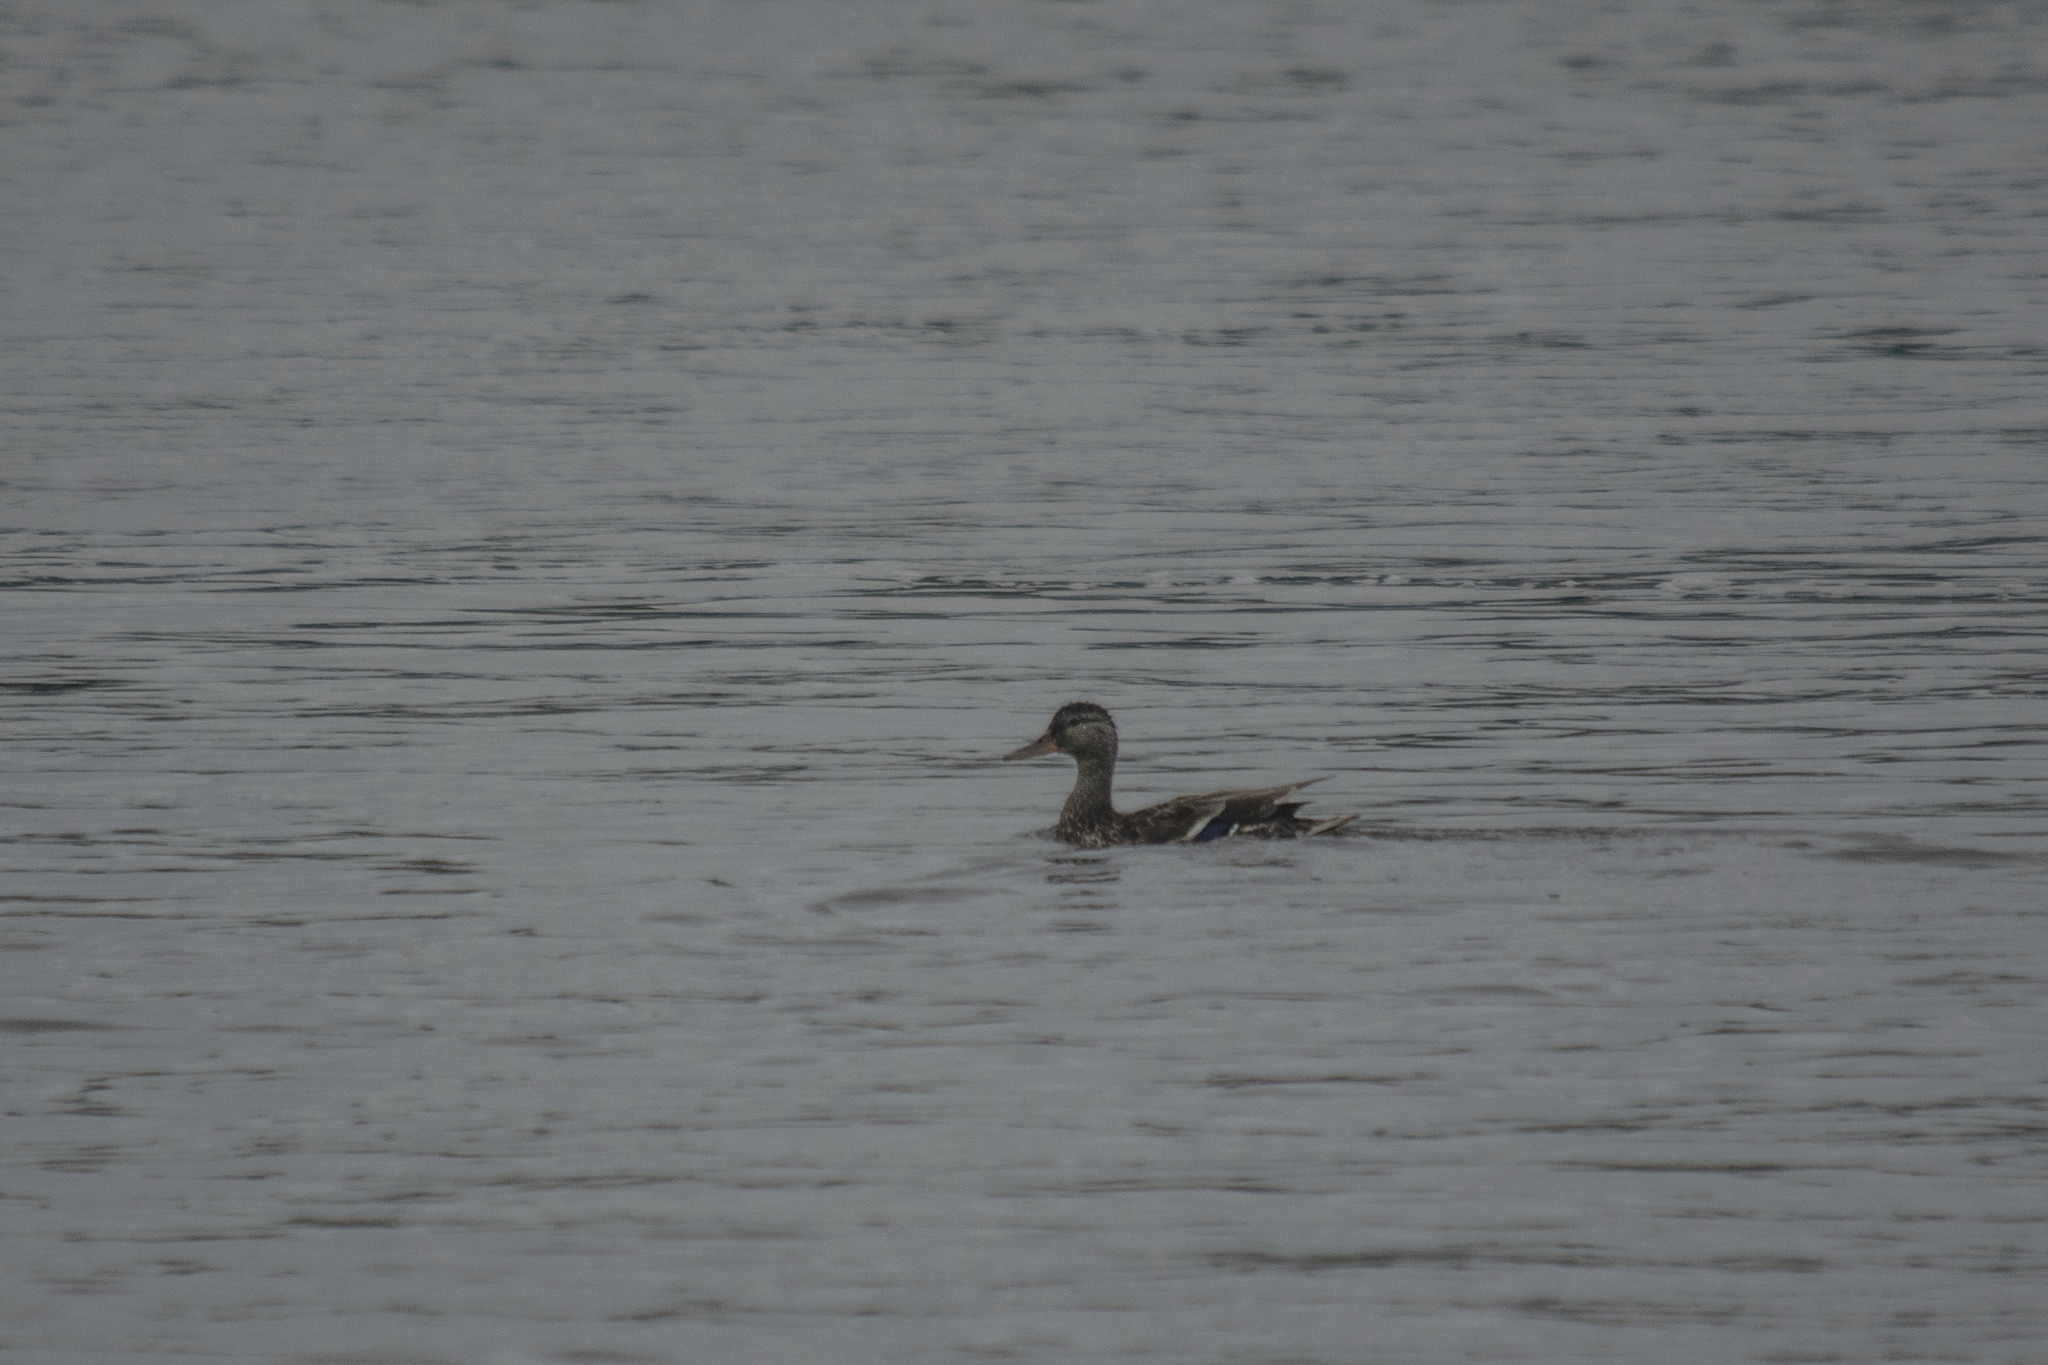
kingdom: Animalia
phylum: Chordata
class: Aves
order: Anseriformes
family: Anatidae
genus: Anas
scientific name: Anas platyrhynchos
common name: Mallard
